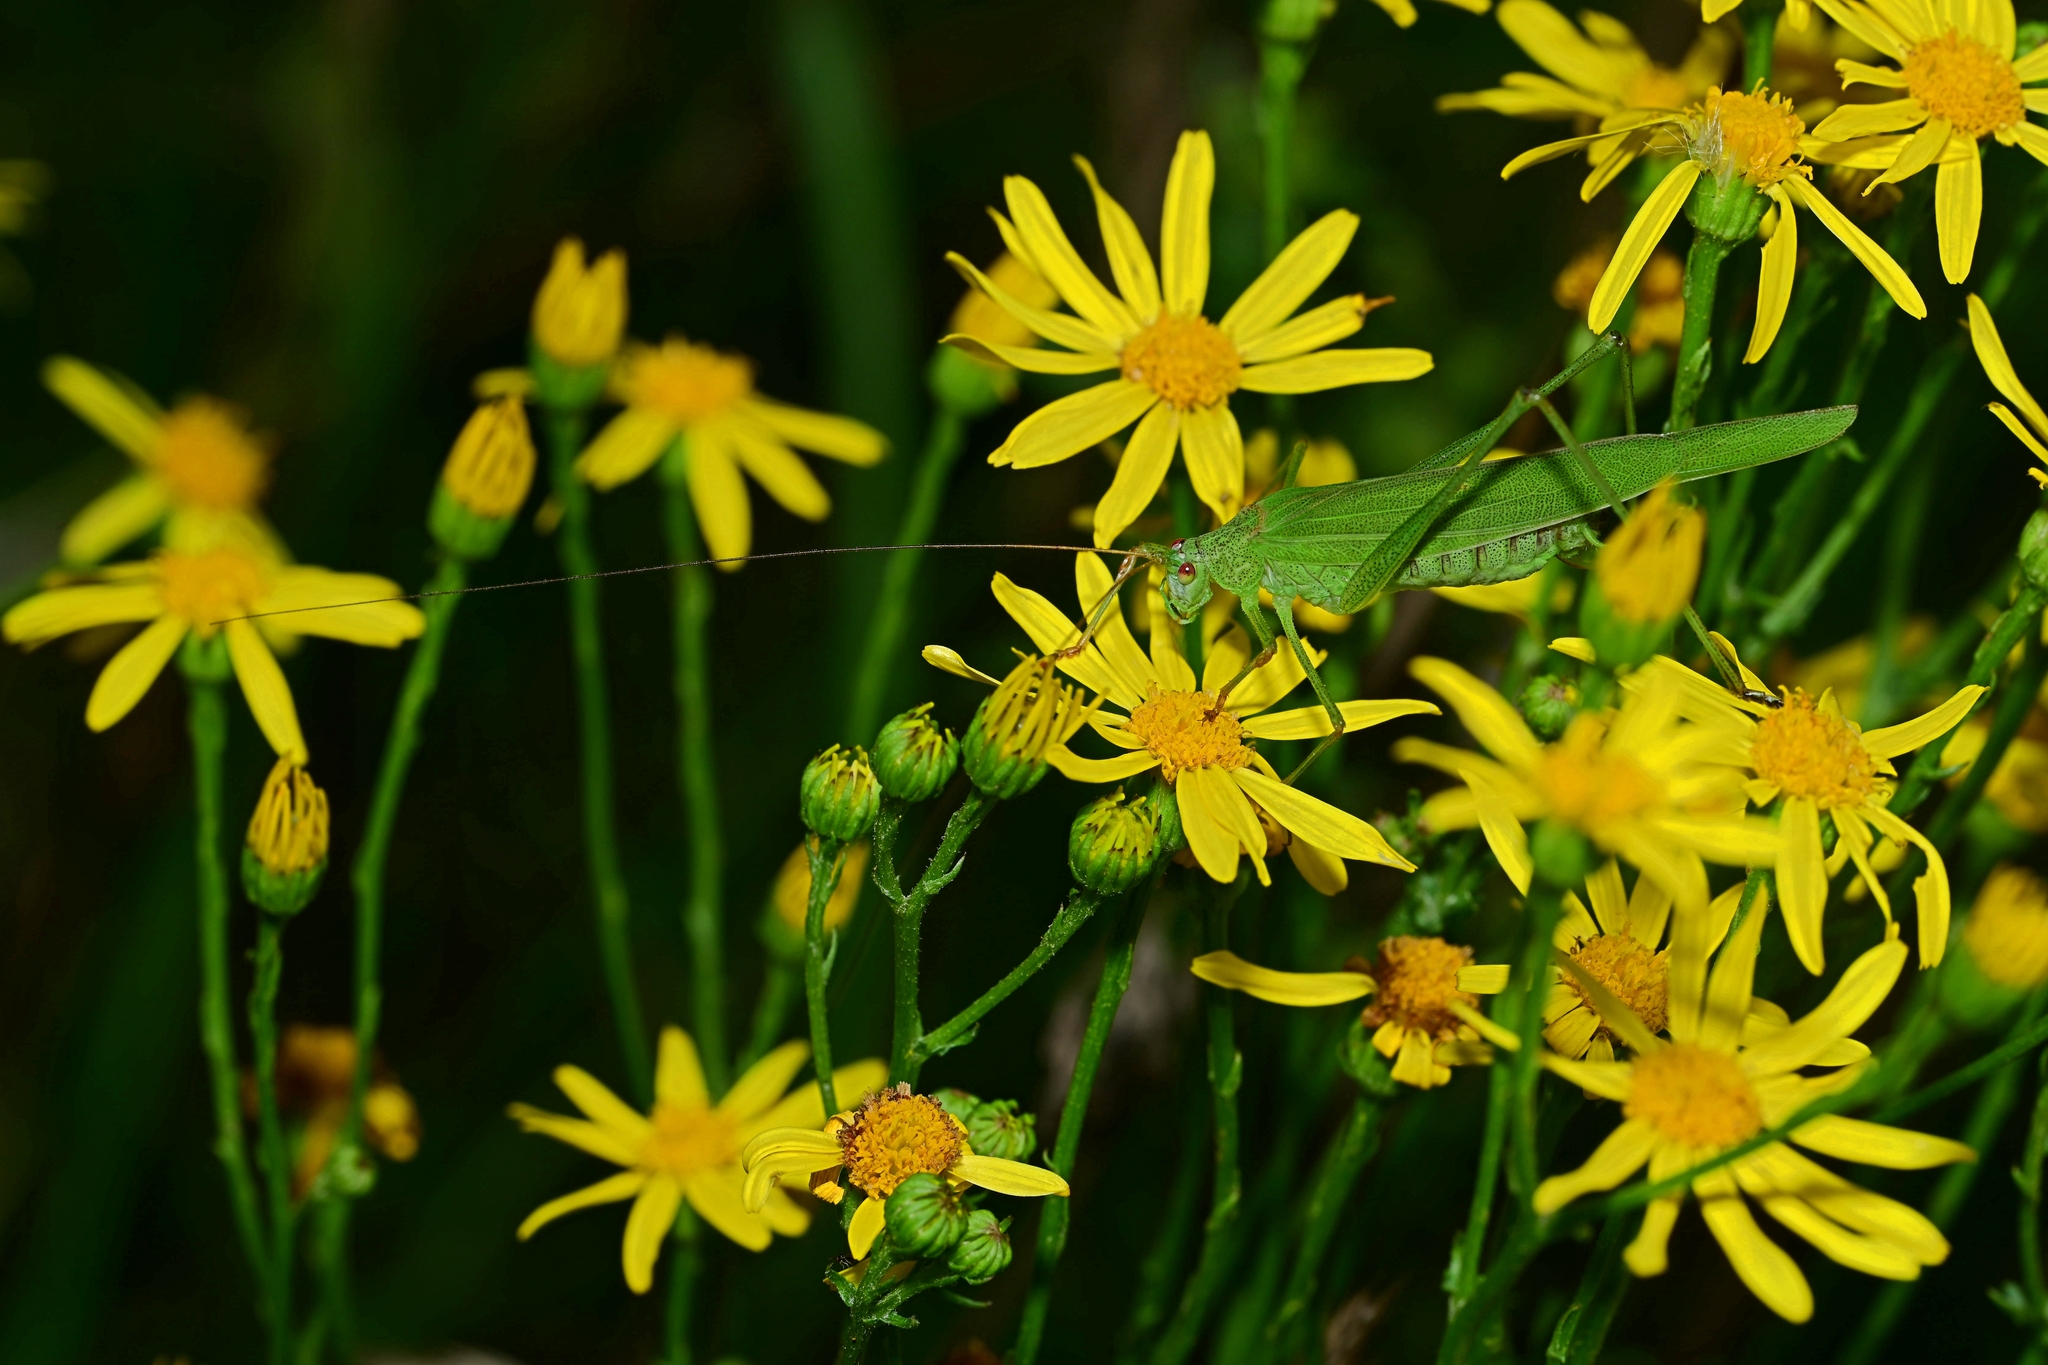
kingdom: Animalia
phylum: Arthropoda
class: Insecta
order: Orthoptera
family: Tettigoniidae
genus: Phaneroptera
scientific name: Phaneroptera falcata
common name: Sickle-bearing bush-cricket
